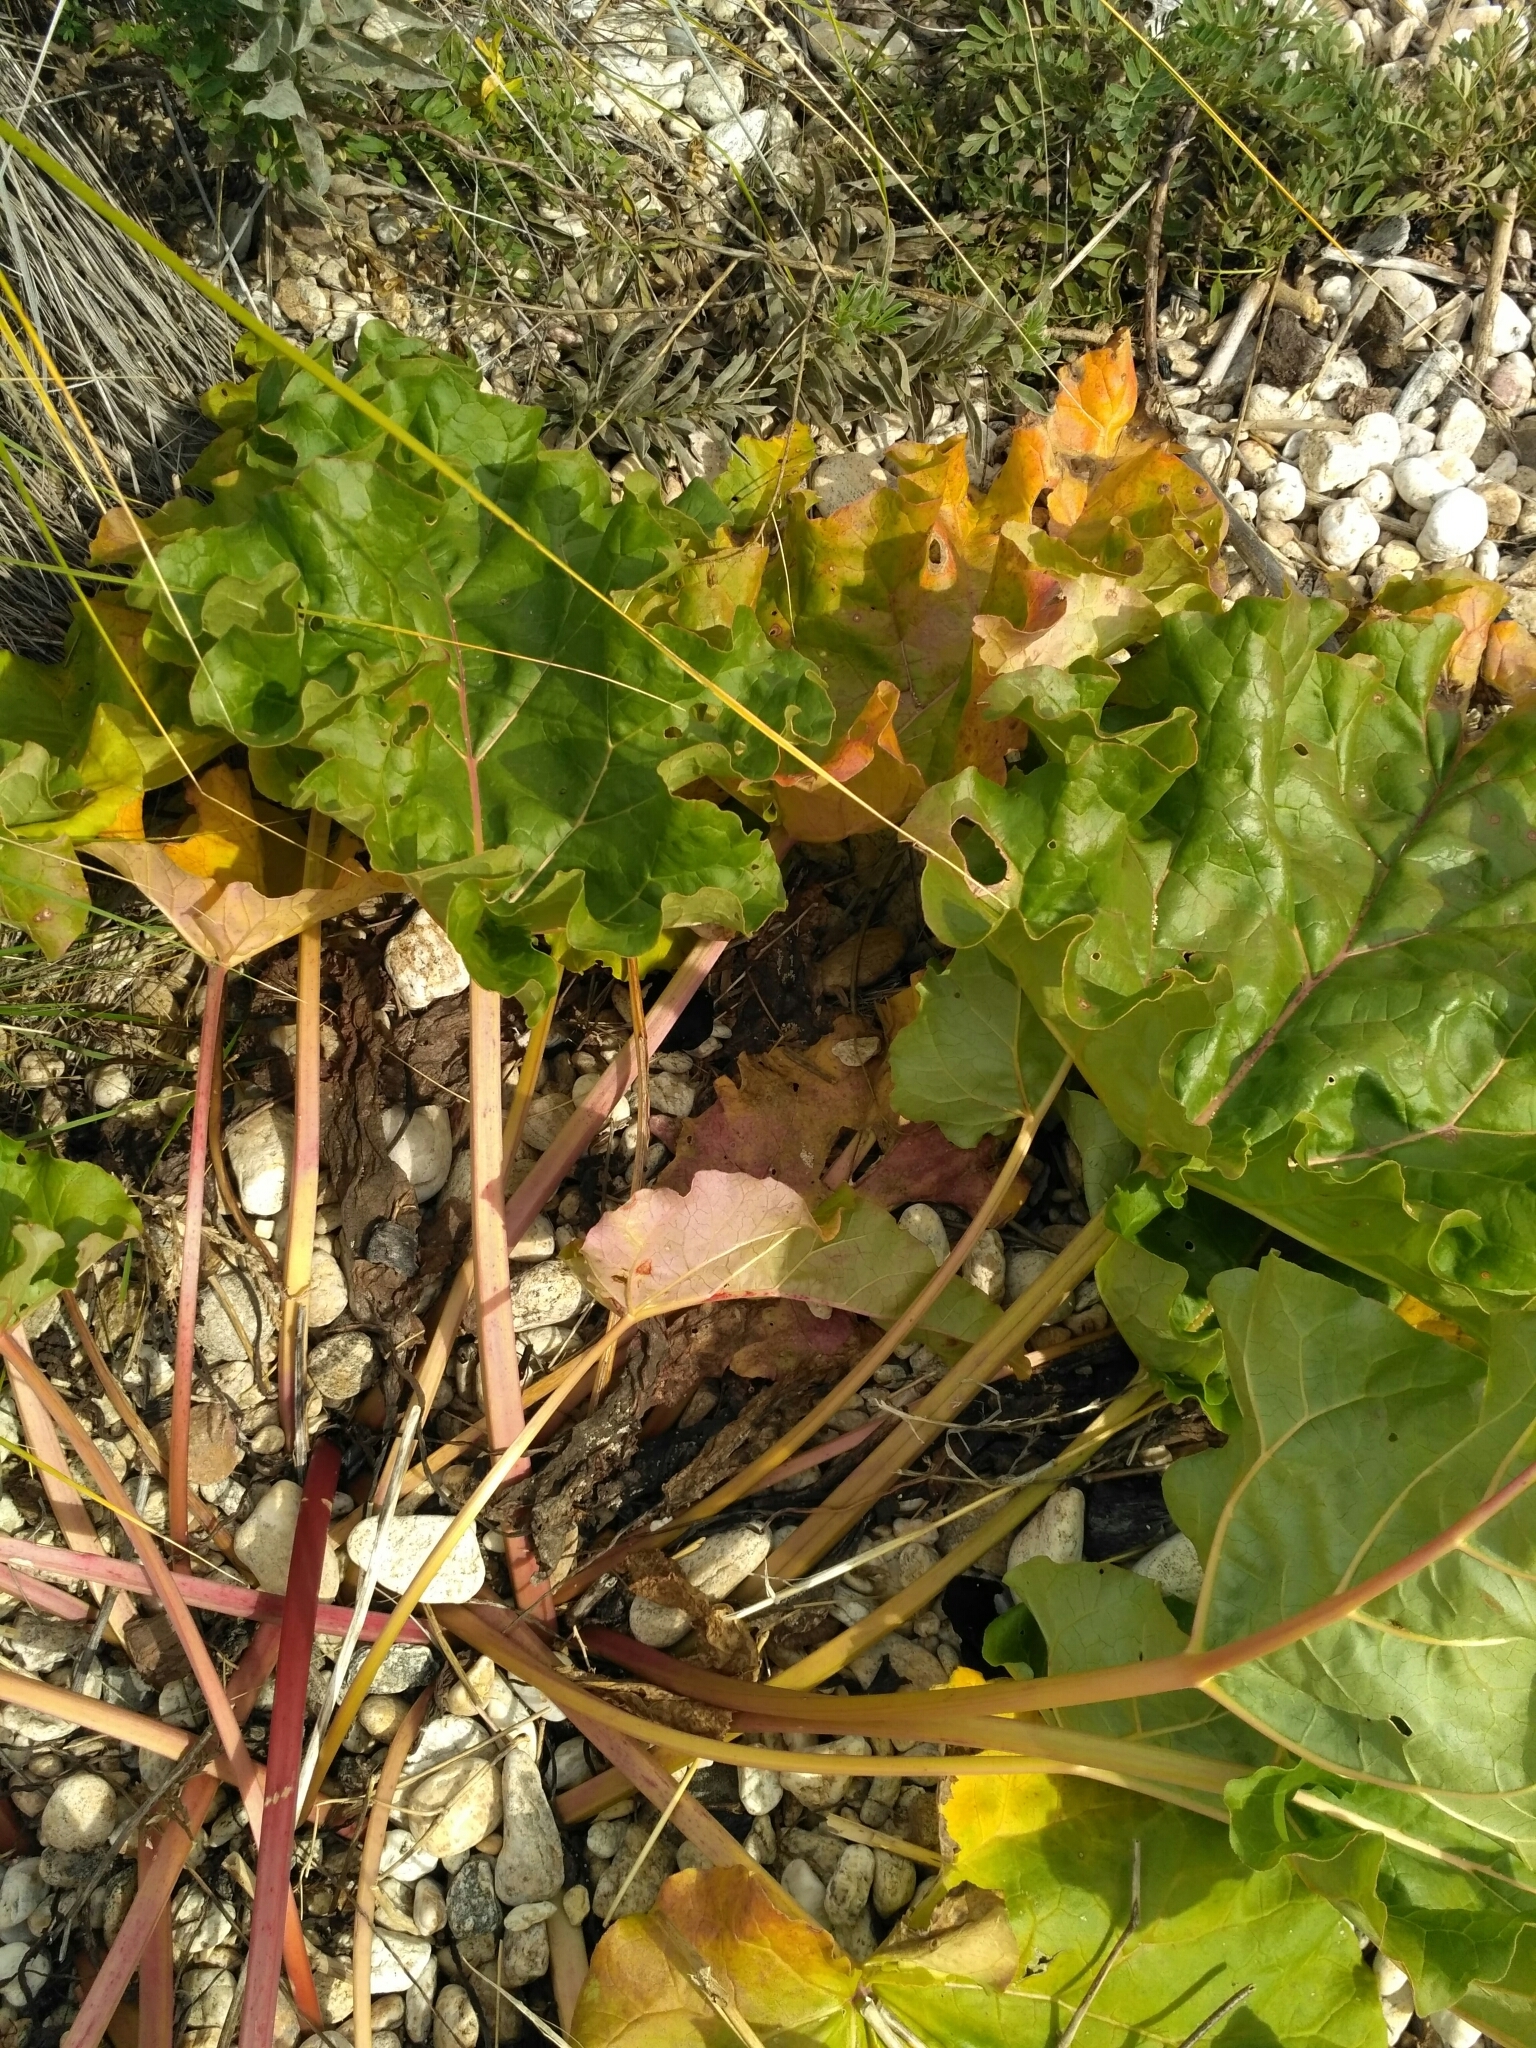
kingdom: Plantae
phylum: Tracheophyta
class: Magnoliopsida
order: Caryophyllales
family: Polygonaceae
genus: Rheum
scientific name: Rheum rhabarbarum
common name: Garden rhubarb
